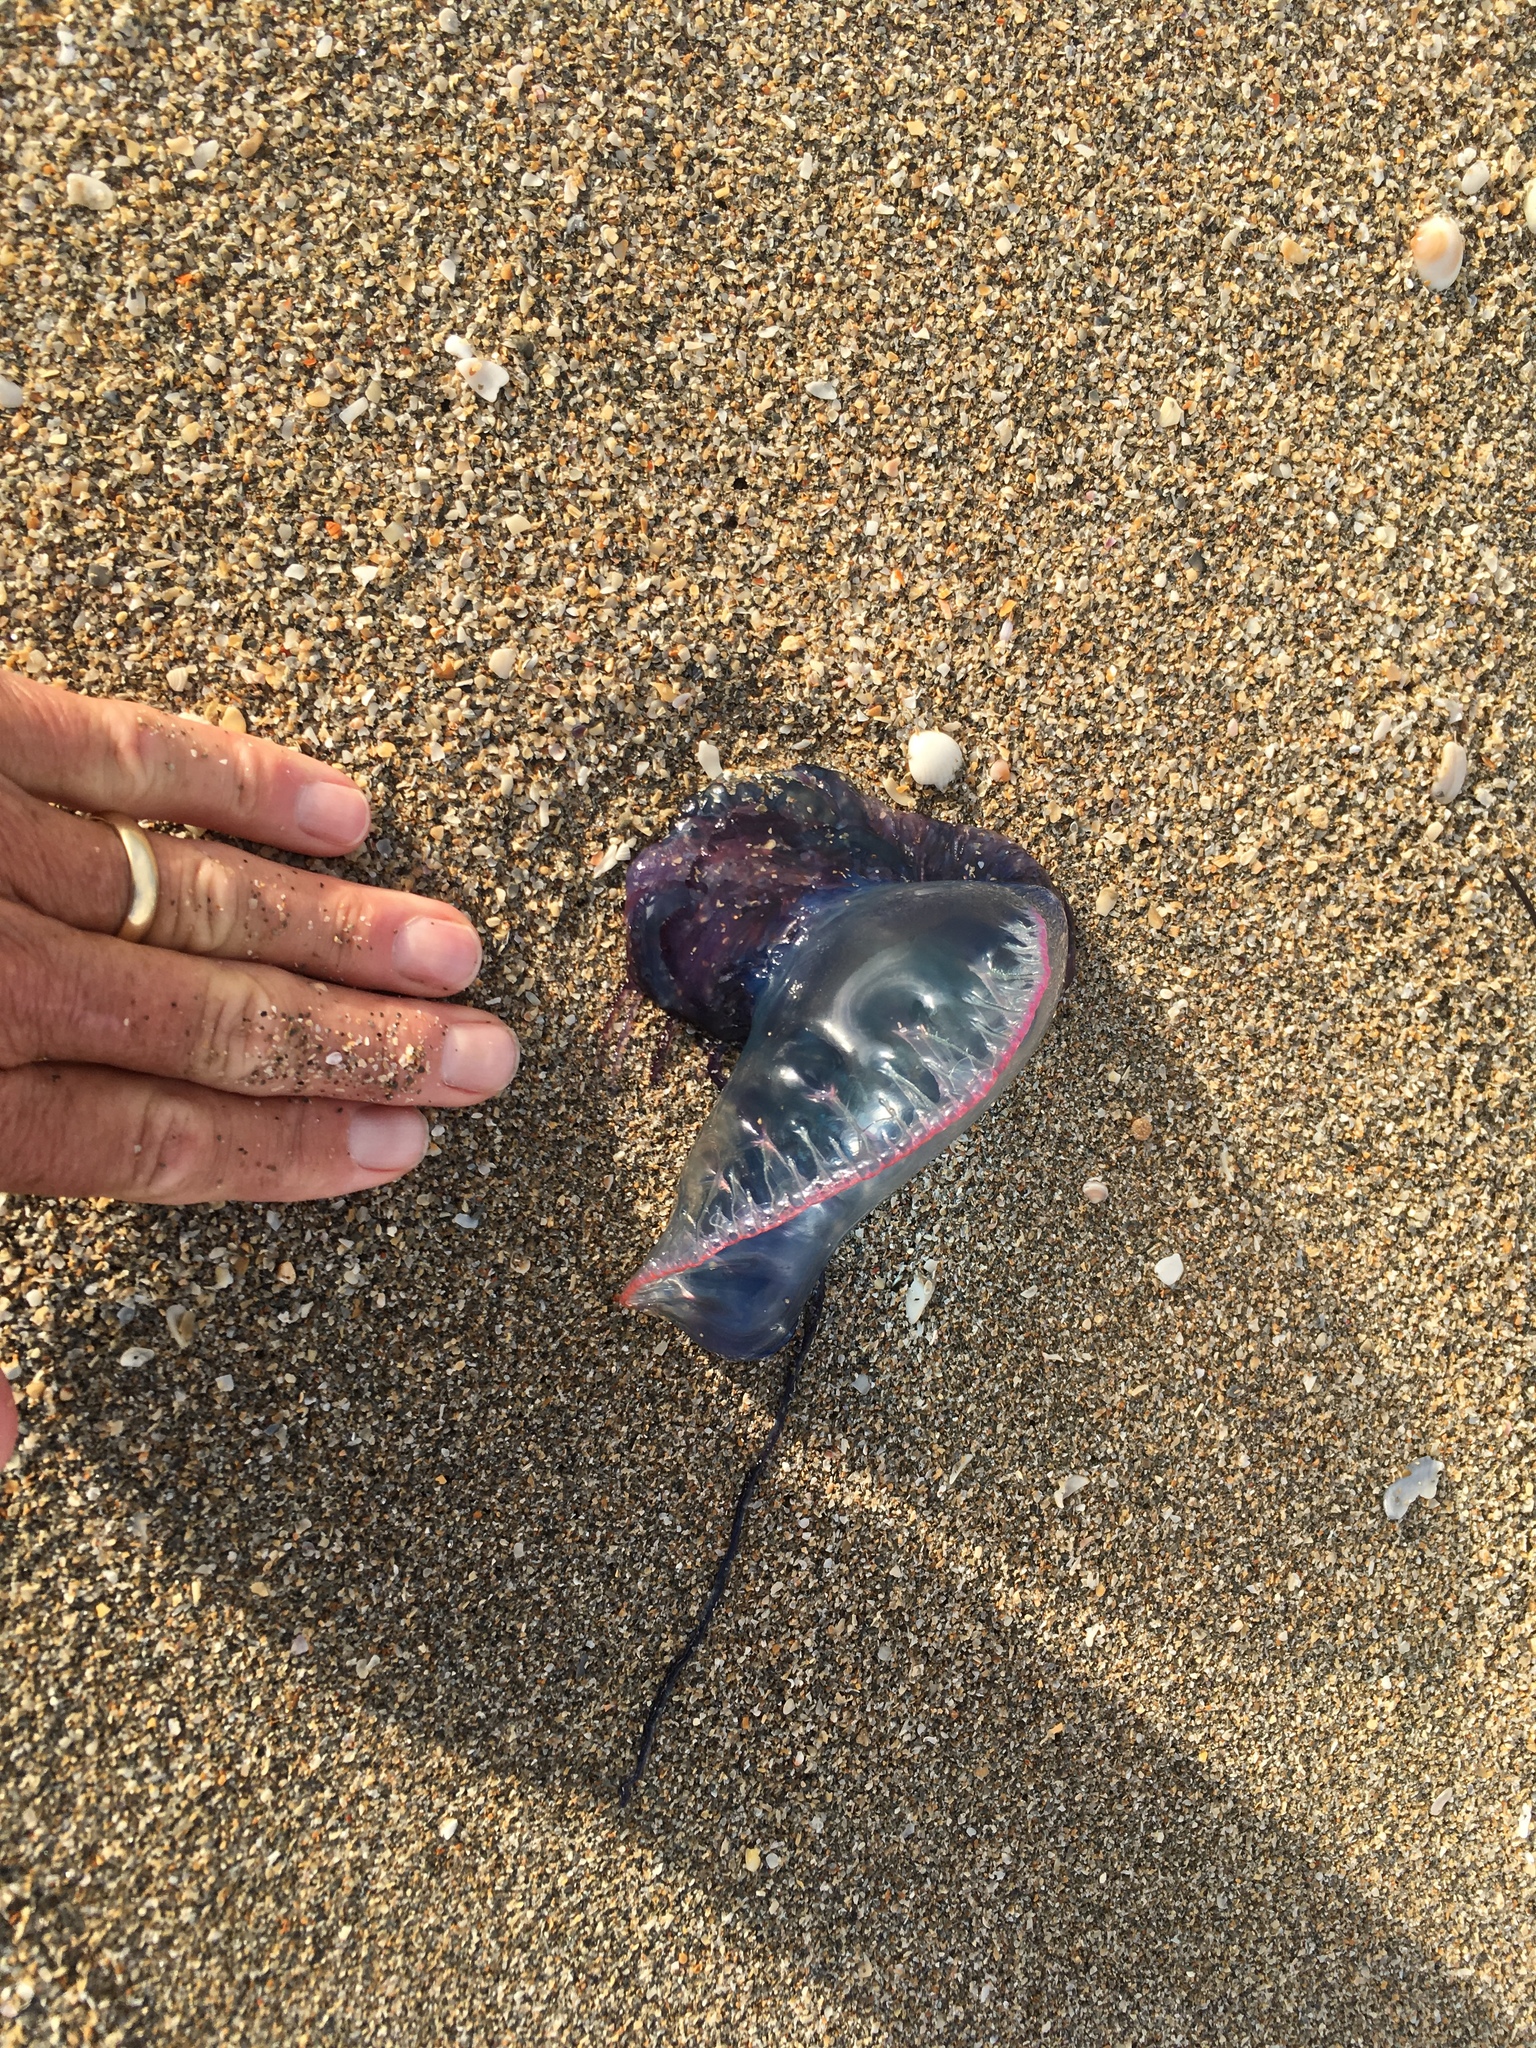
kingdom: Animalia
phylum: Cnidaria
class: Hydrozoa
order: Siphonophorae
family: Physaliidae
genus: Physalia
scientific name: Physalia physalis
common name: Portuguese man-of-war
